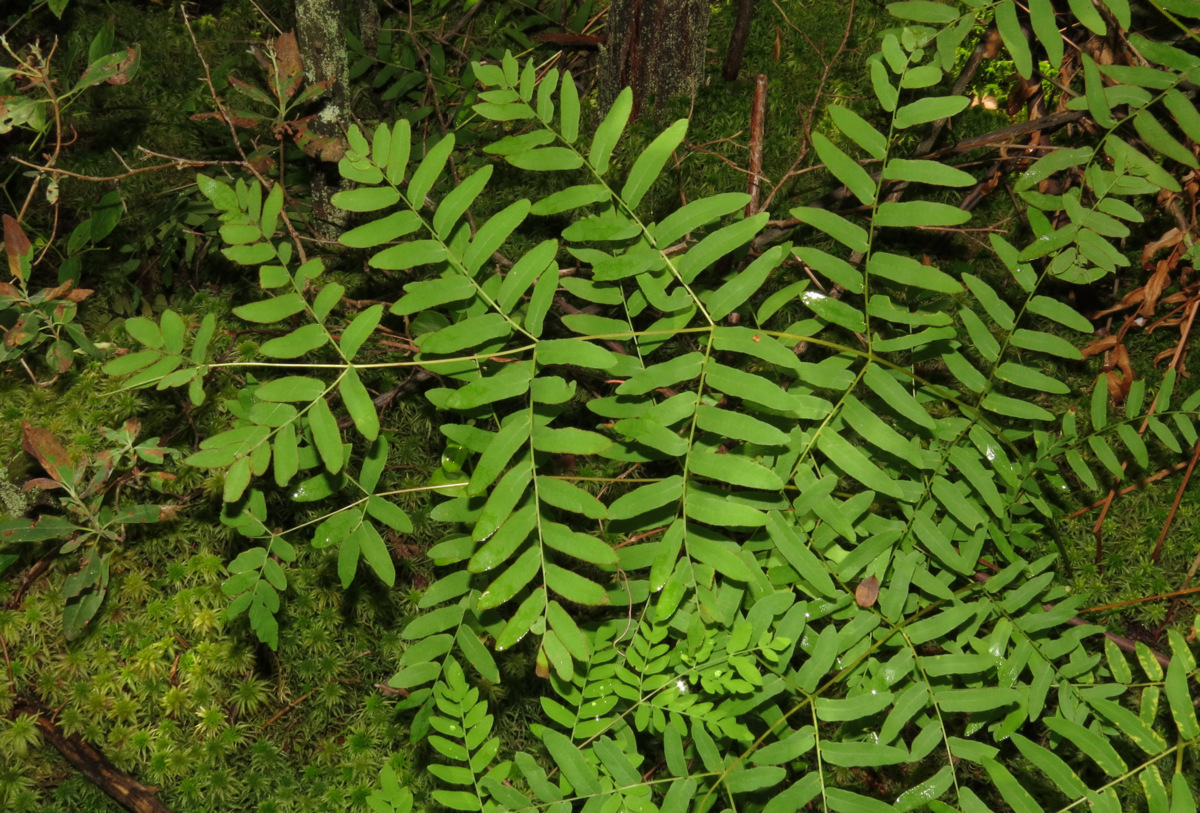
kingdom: Plantae
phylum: Tracheophyta
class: Polypodiopsida
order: Osmundales
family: Osmundaceae
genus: Osmunda
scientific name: Osmunda spectabilis
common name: American royal fern
